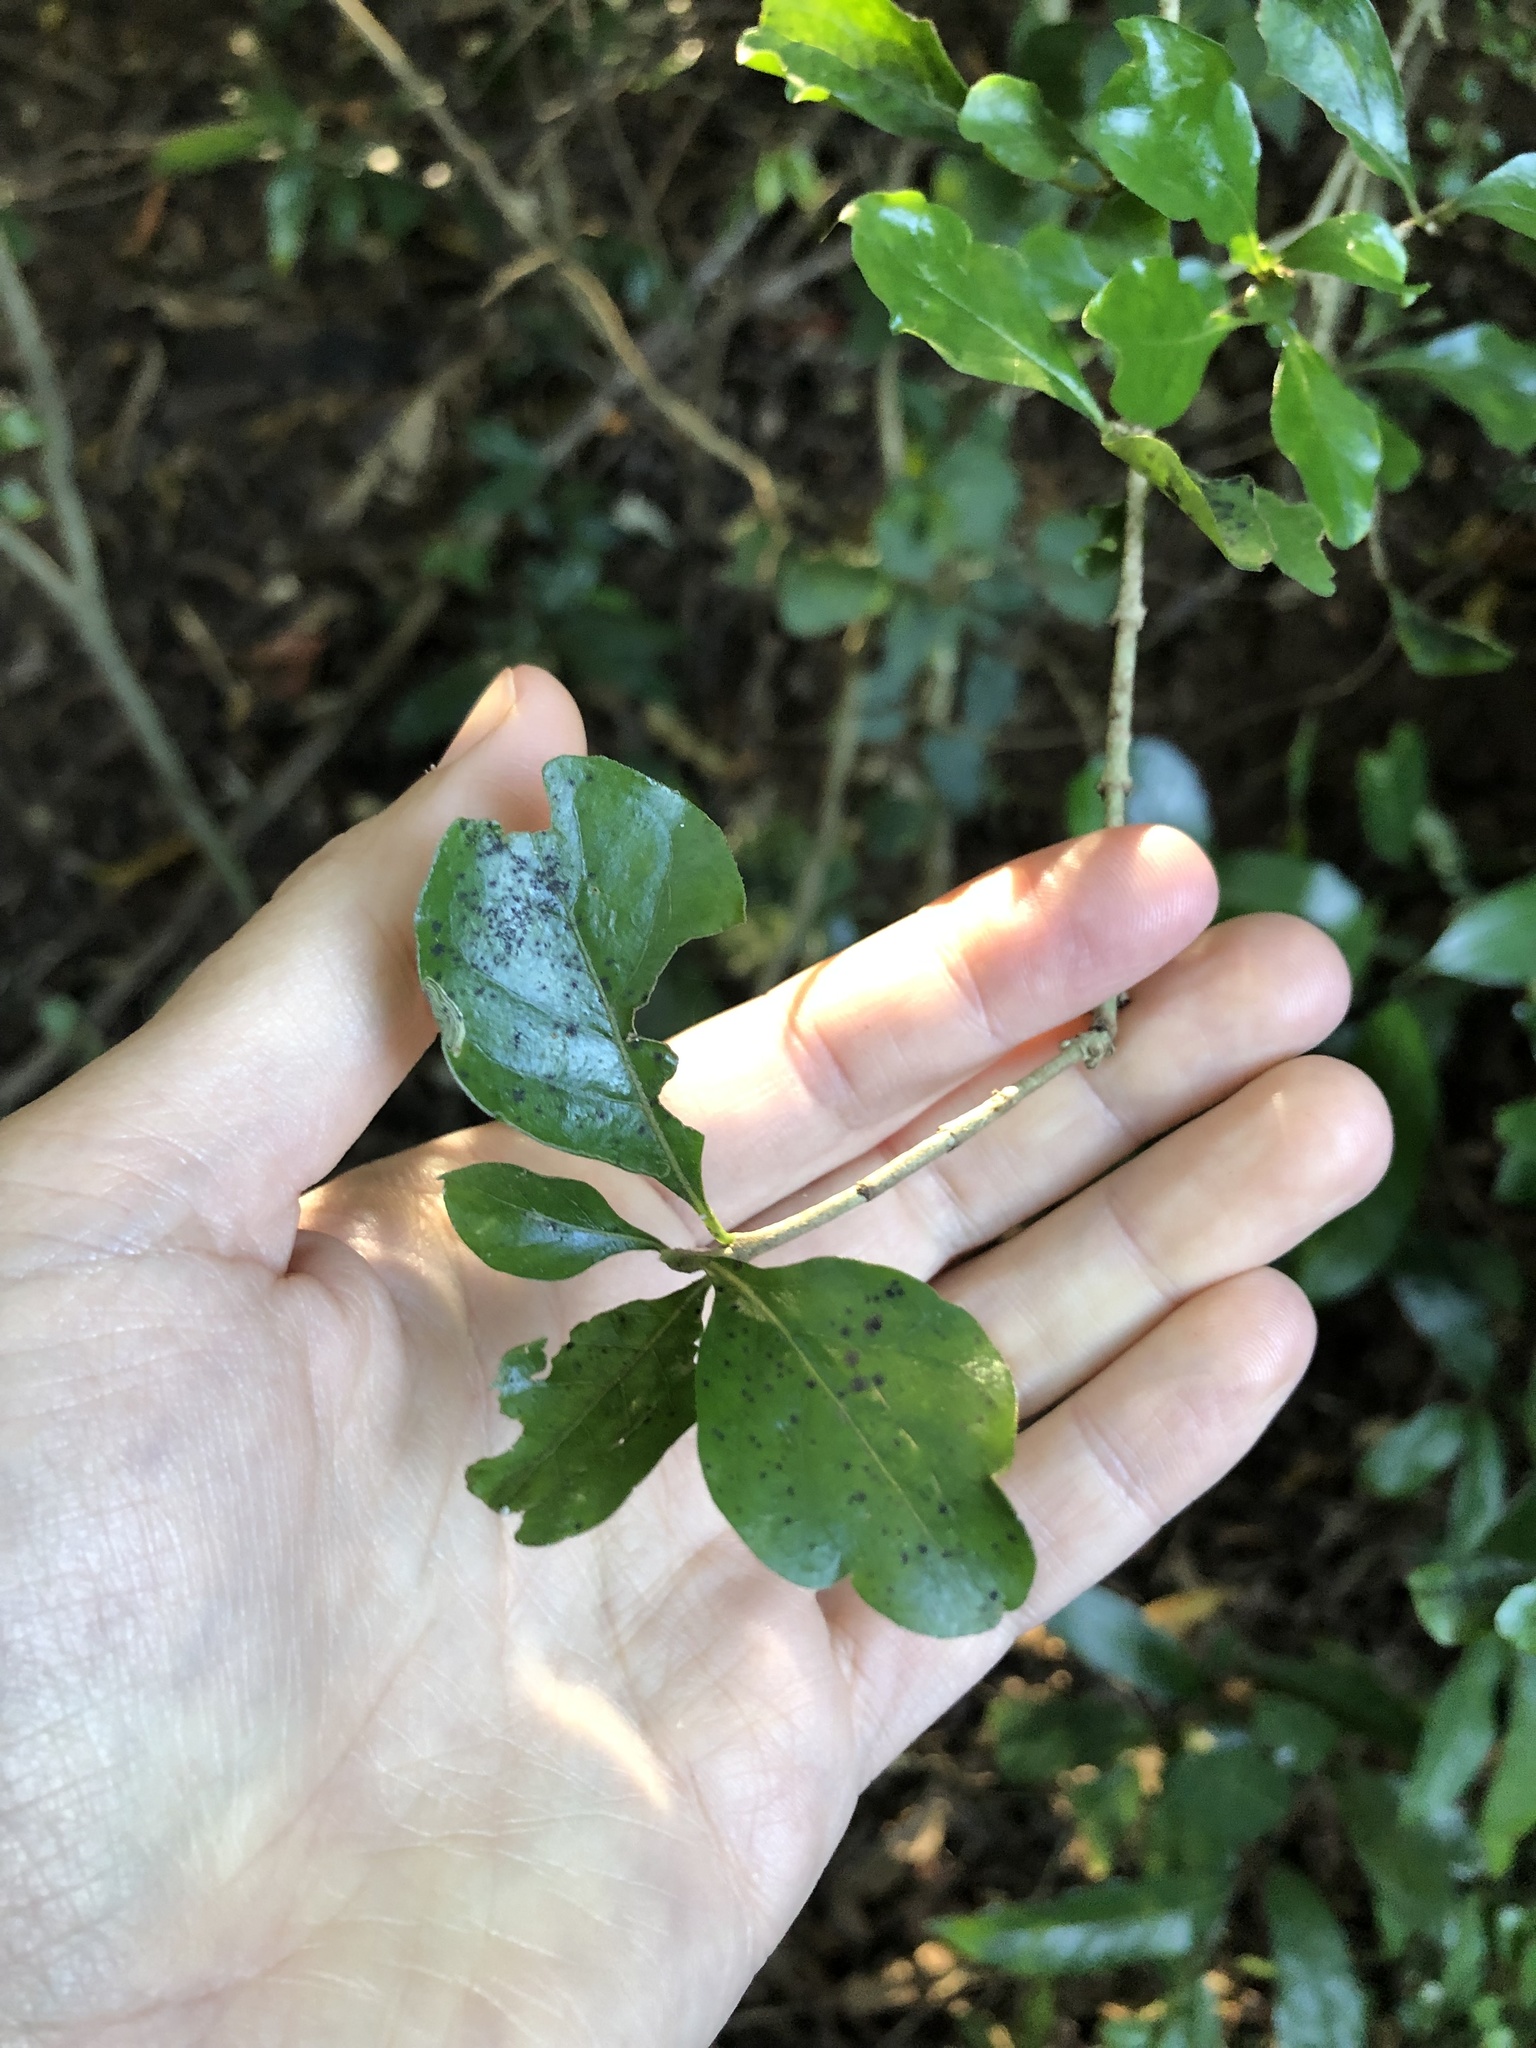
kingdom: Plantae
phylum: Tracheophyta
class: Magnoliopsida
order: Gentianales
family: Rubiaceae
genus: Coddia
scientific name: Coddia rudis
